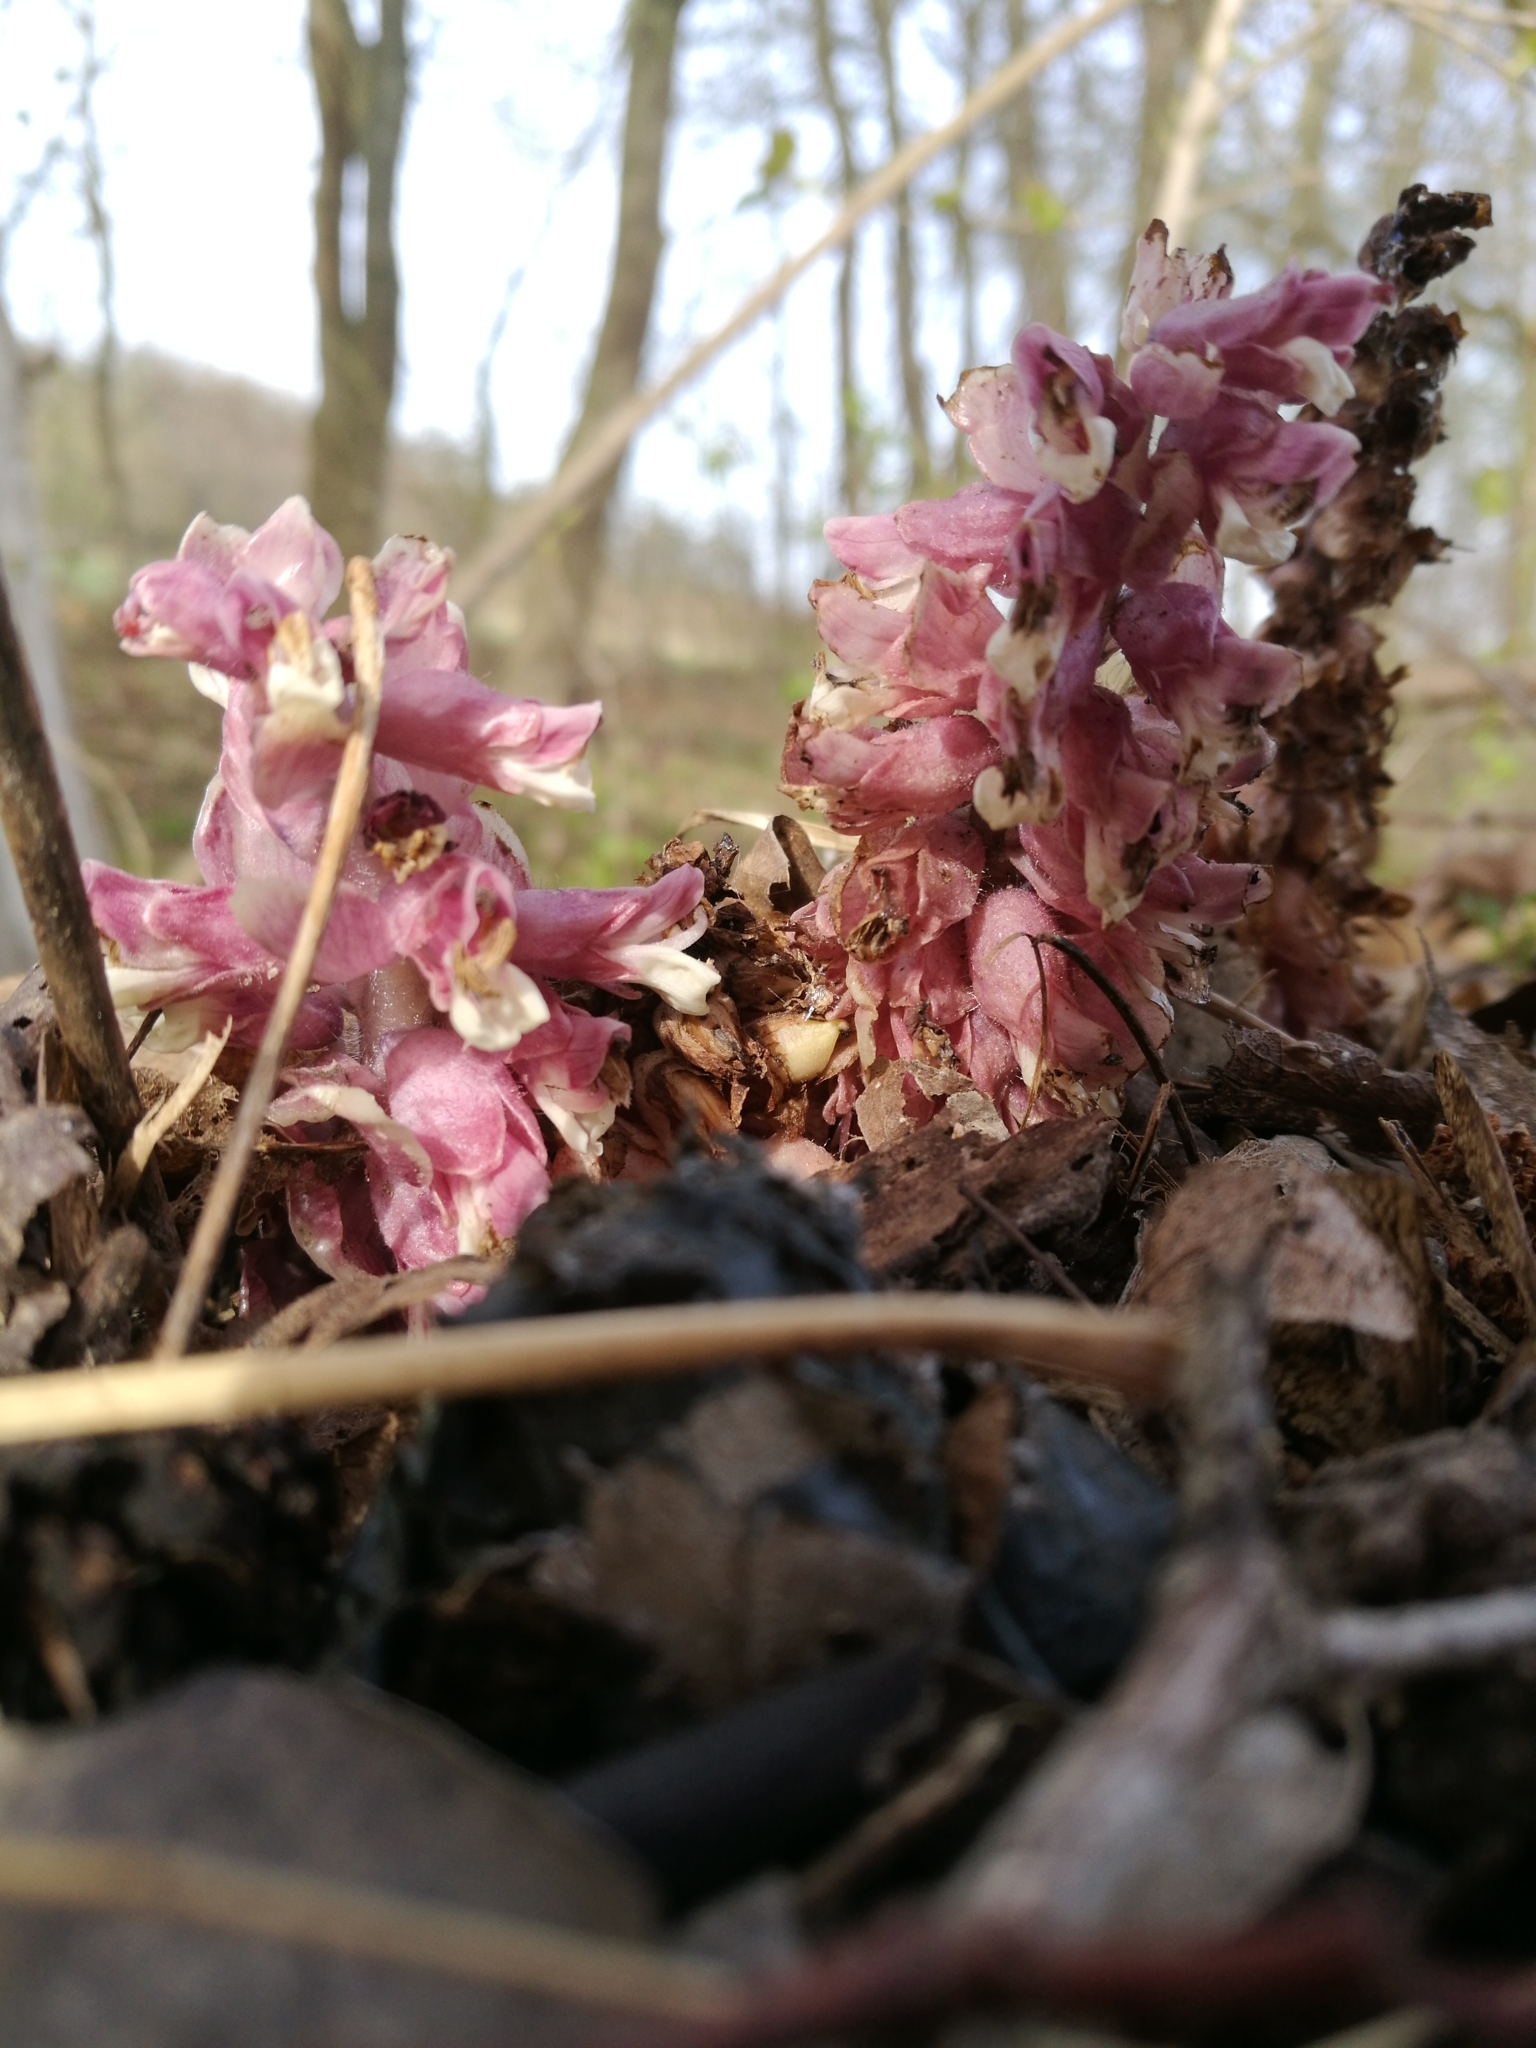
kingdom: Plantae
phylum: Tracheophyta
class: Magnoliopsida
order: Lamiales
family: Orobanchaceae
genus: Lathraea
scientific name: Lathraea squamaria
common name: Toothwort
